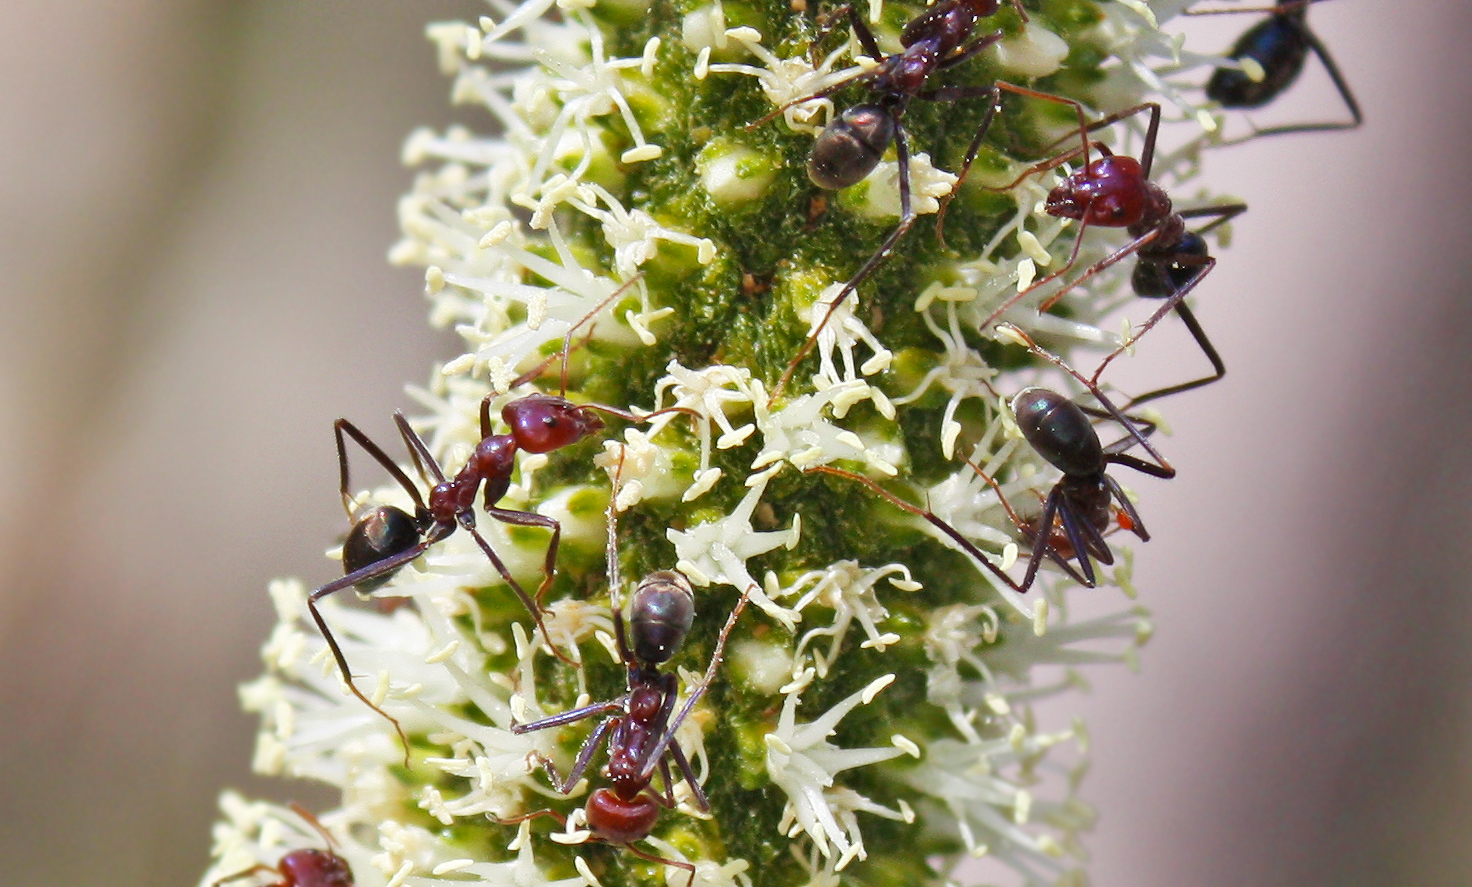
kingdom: Animalia
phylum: Arthropoda
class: Insecta
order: Hymenoptera
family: Formicidae
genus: Iridomyrmex
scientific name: Iridomyrmex purpureus
